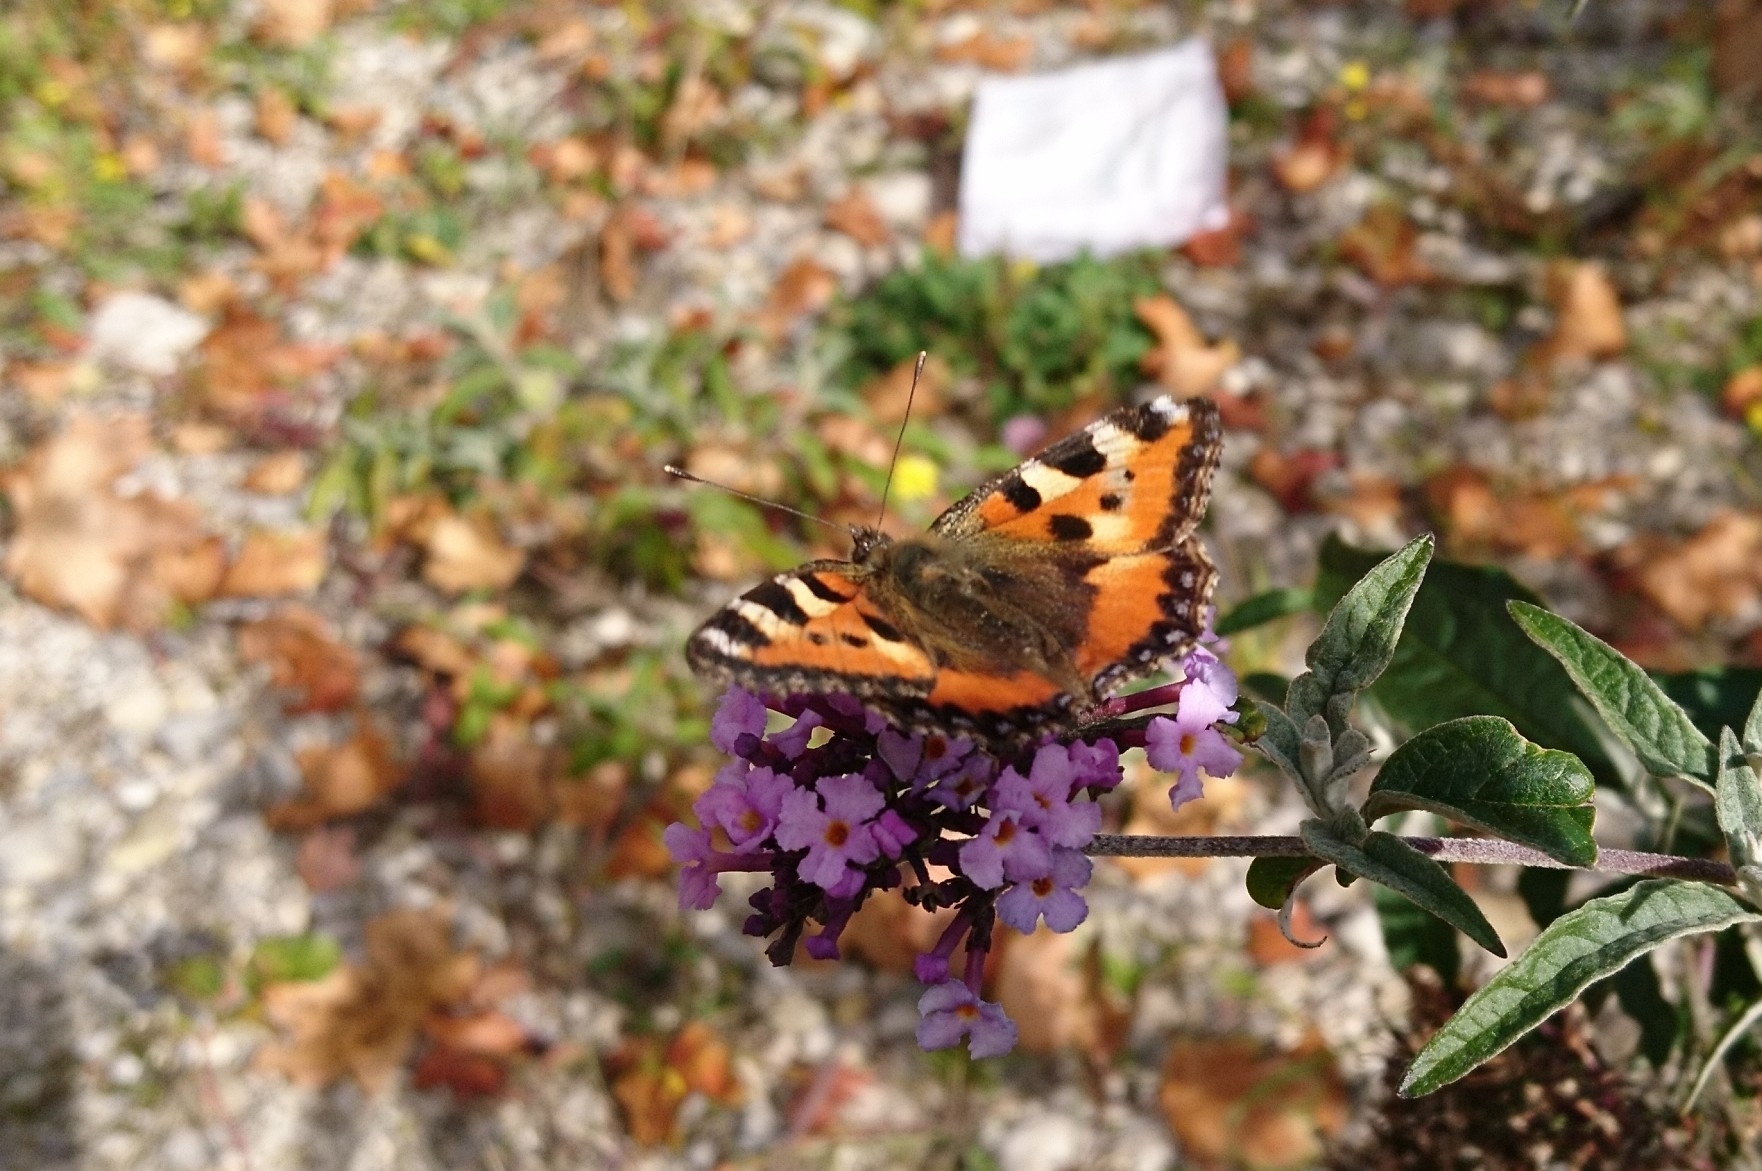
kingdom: Animalia
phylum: Arthropoda
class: Insecta
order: Lepidoptera
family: Nymphalidae
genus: Aglais
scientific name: Aglais urticae
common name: Small tortoiseshell
